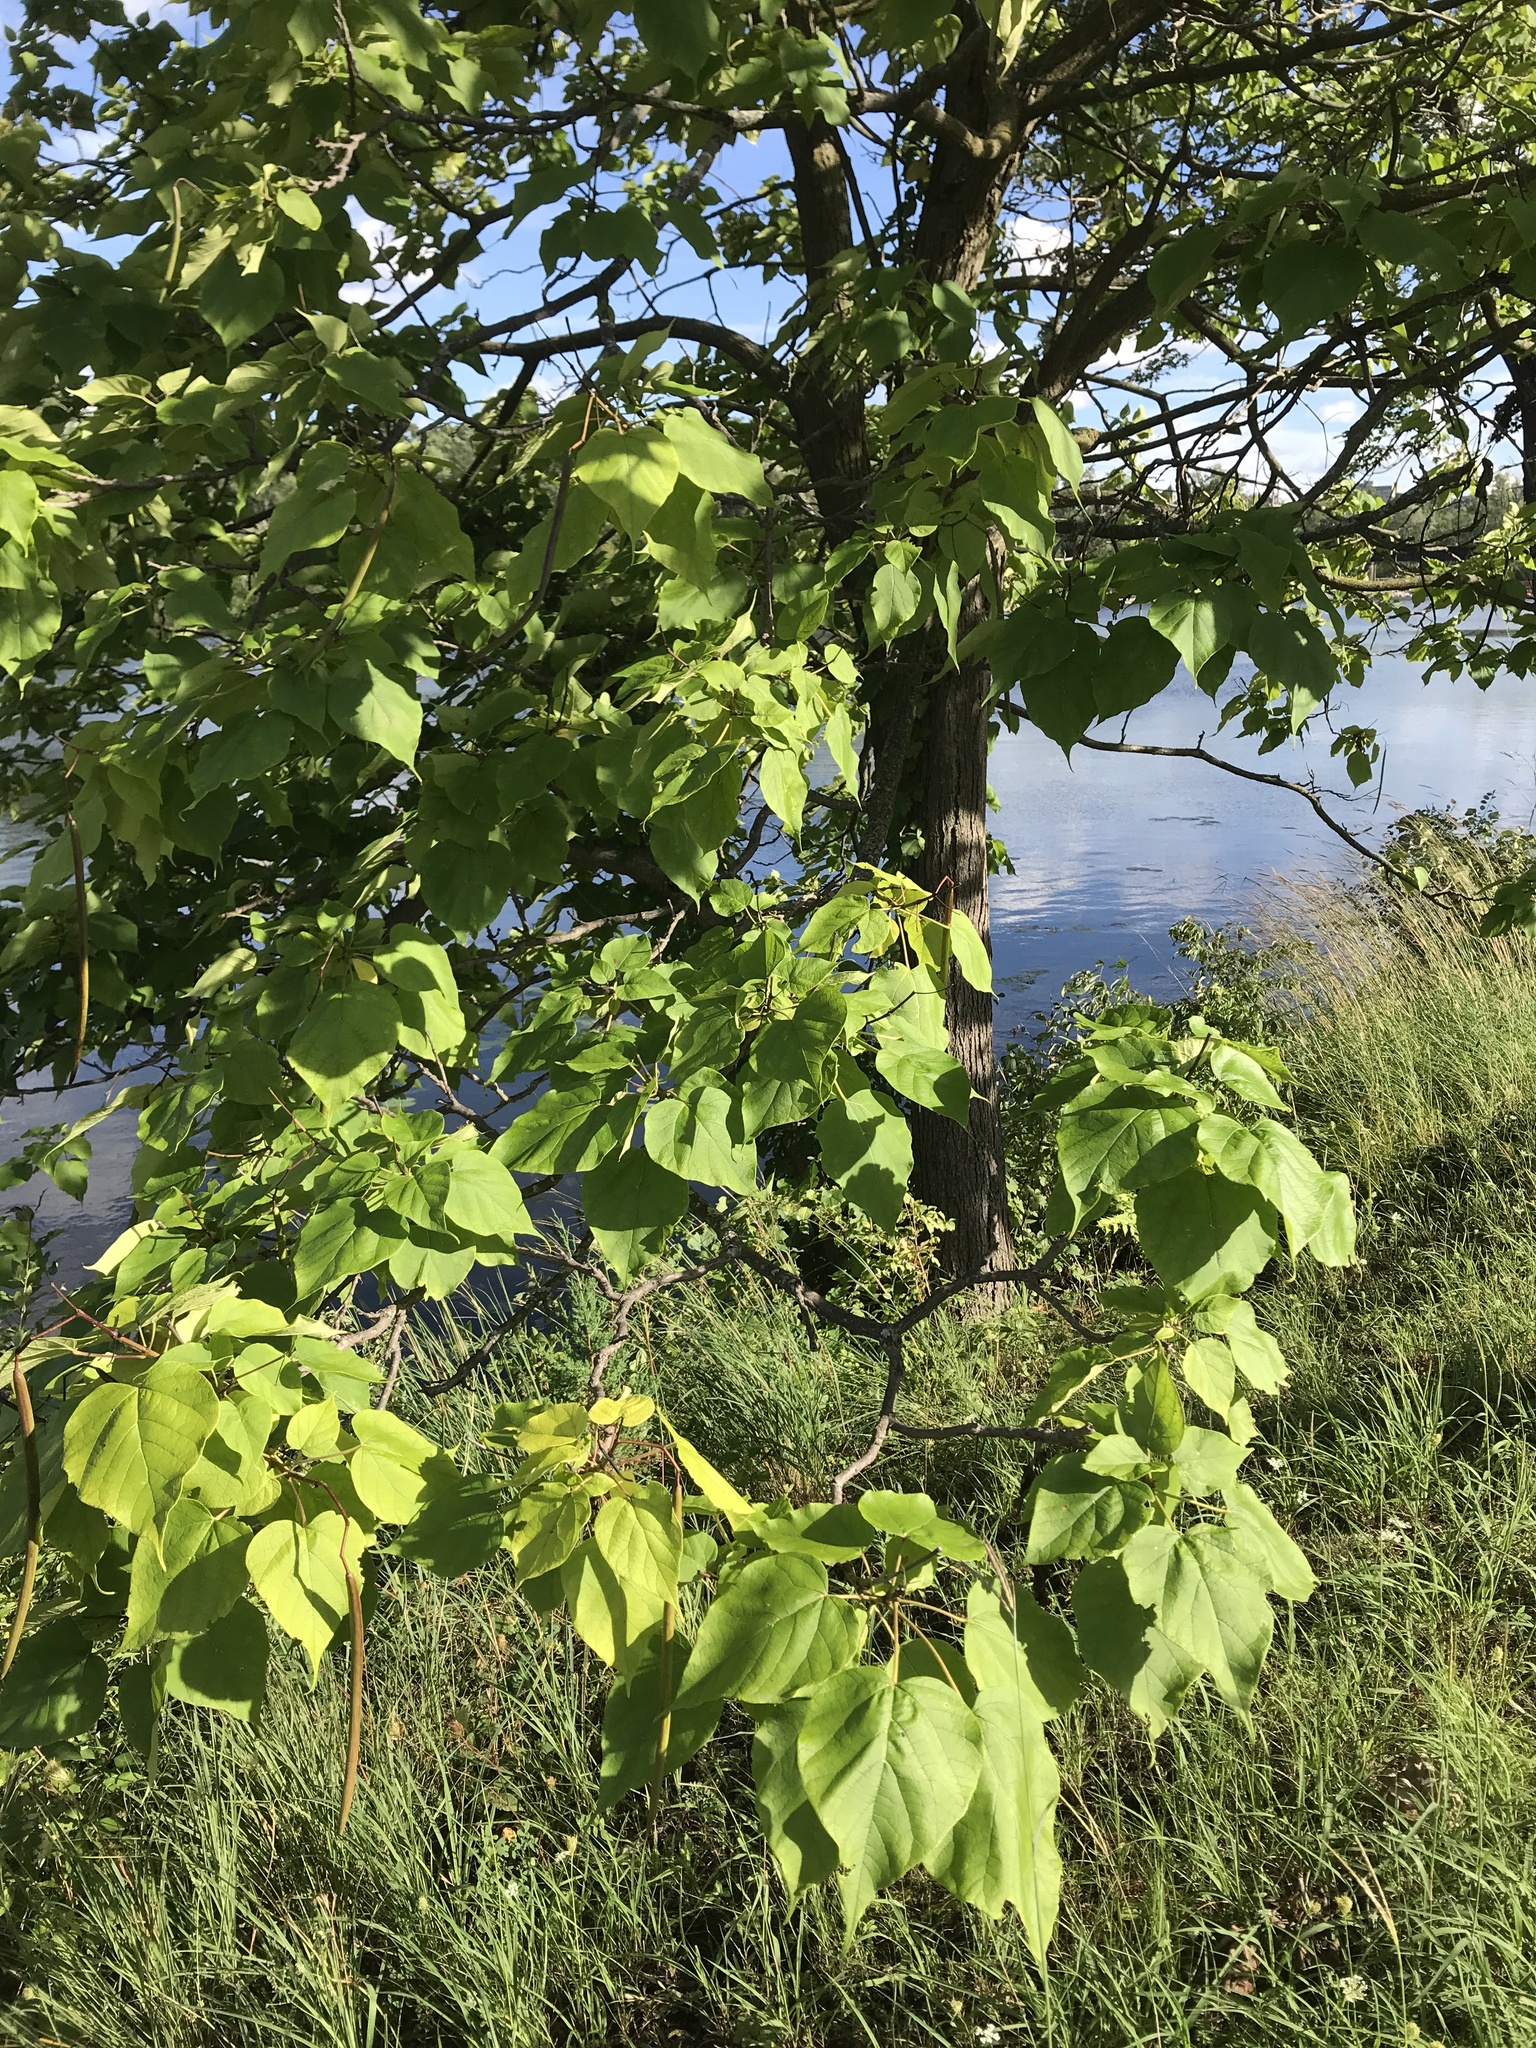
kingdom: Plantae
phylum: Tracheophyta
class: Magnoliopsida
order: Lamiales
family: Bignoniaceae
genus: Catalpa
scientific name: Catalpa speciosa
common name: Northern catalpa
